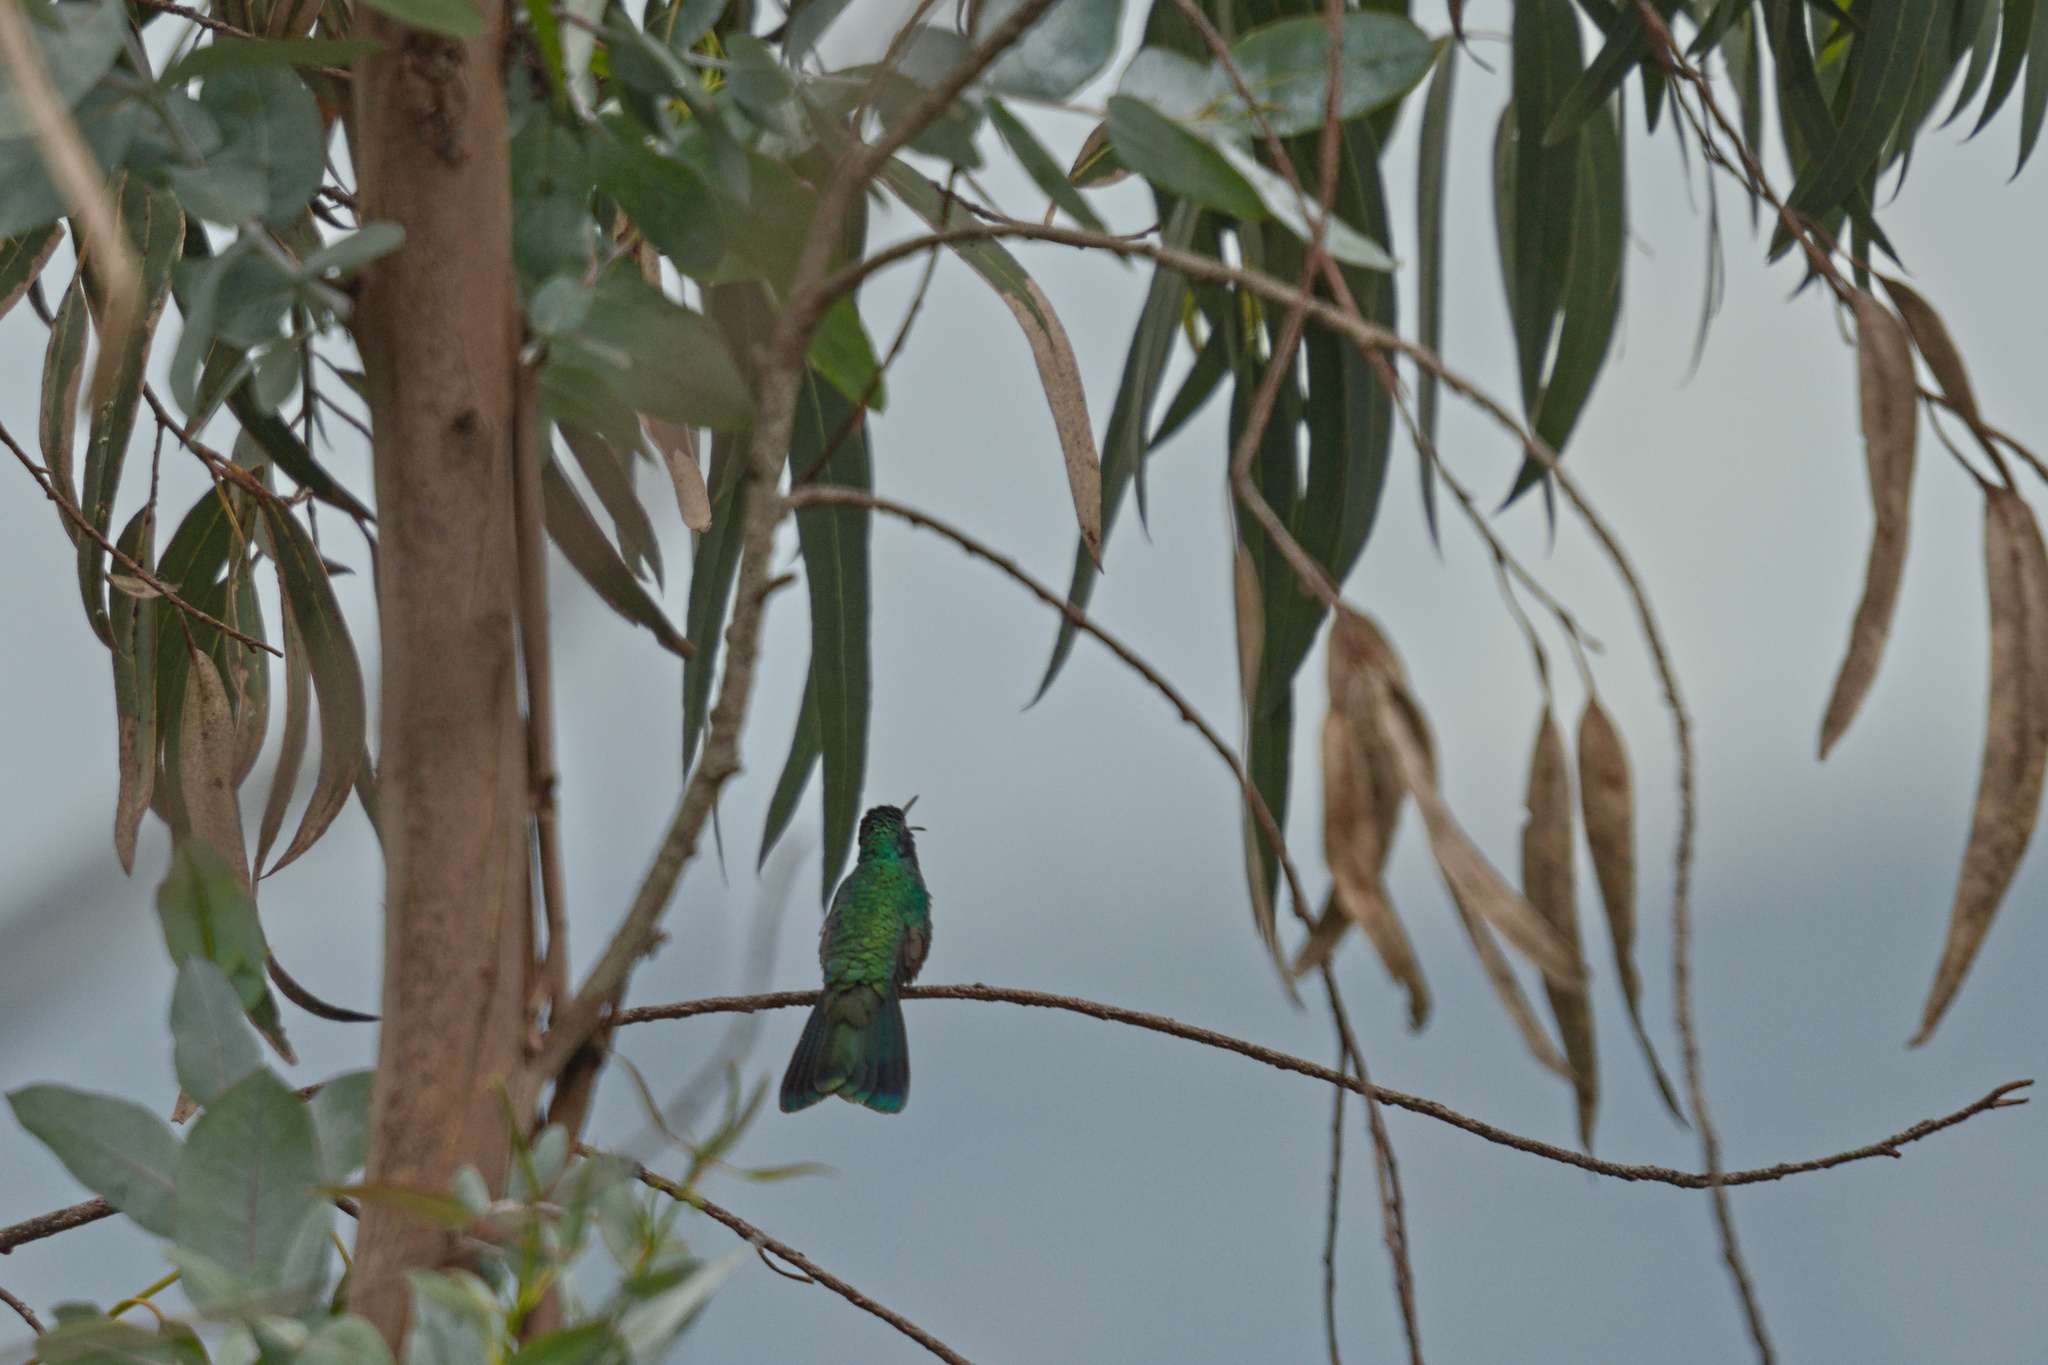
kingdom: Animalia
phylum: Chordata
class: Aves
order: Apodiformes
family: Trochilidae
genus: Colibri
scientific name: Colibri coruscans
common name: Sparkling violetear
